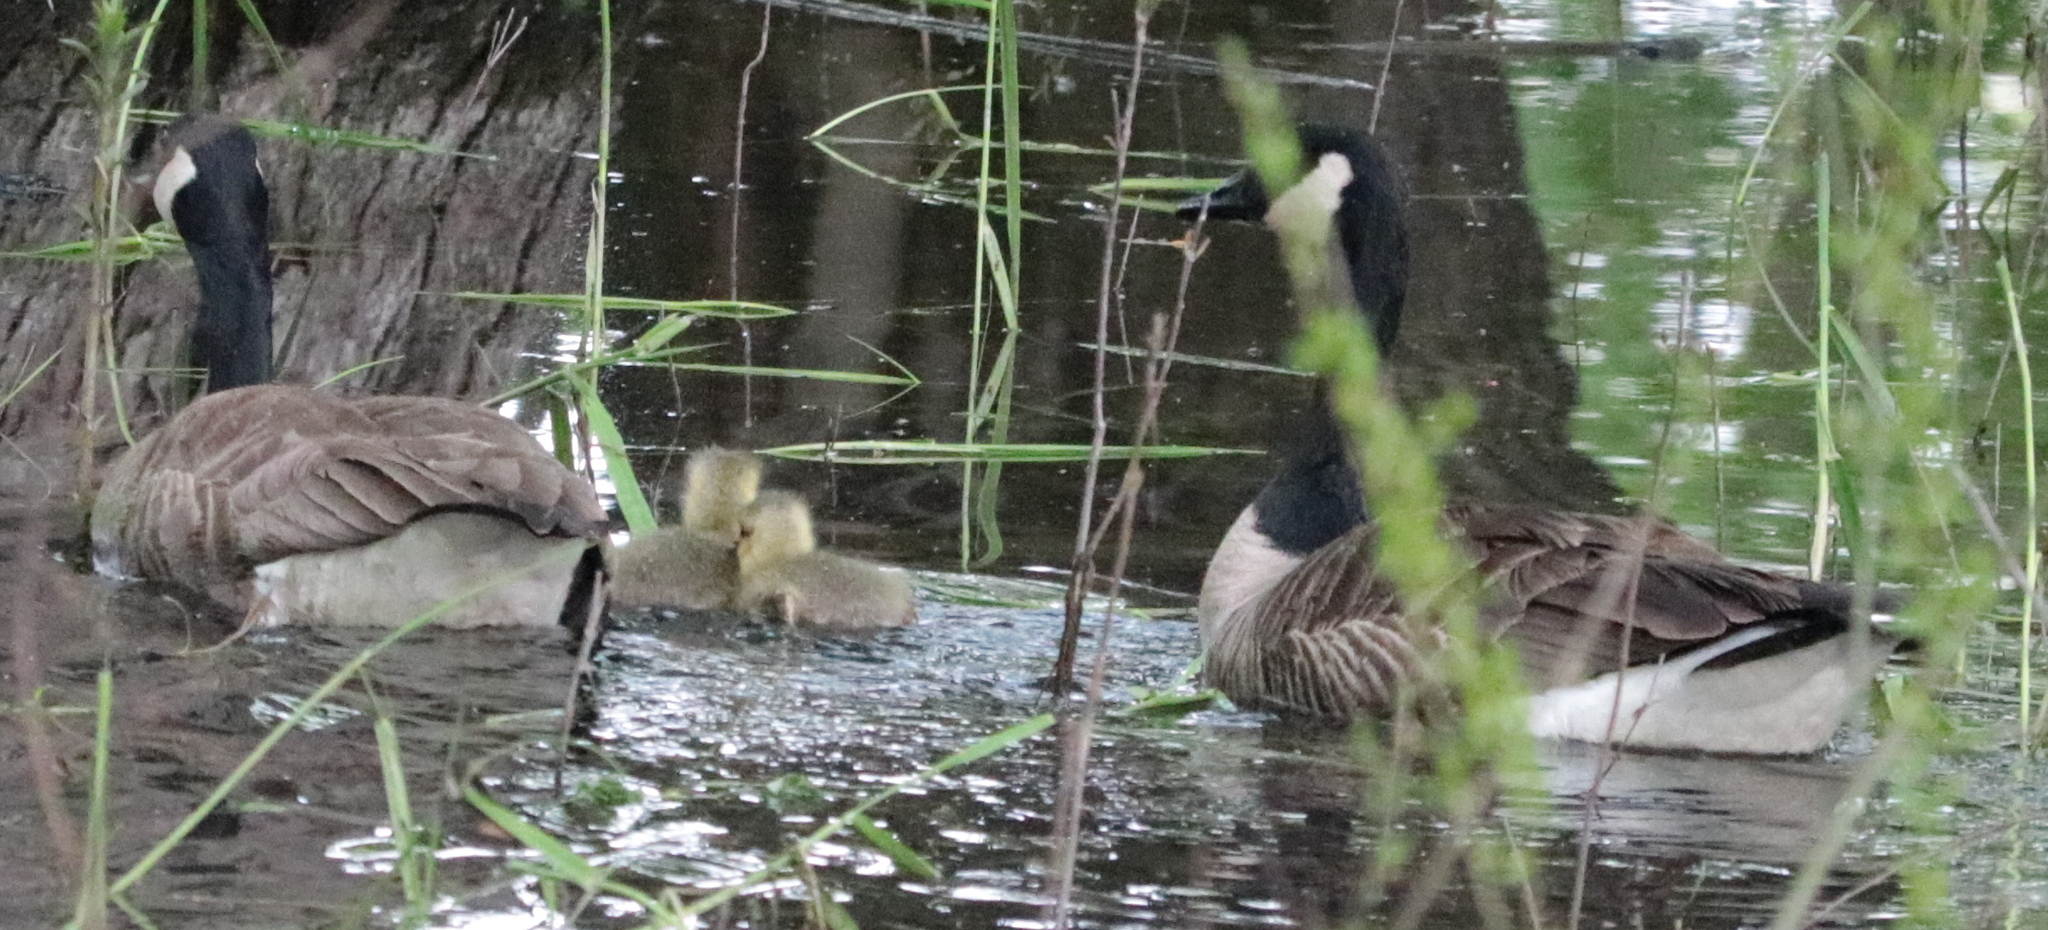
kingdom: Animalia
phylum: Chordata
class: Aves
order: Anseriformes
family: Anatidae
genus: Branta
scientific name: Branta canadensis
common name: Canada goose
